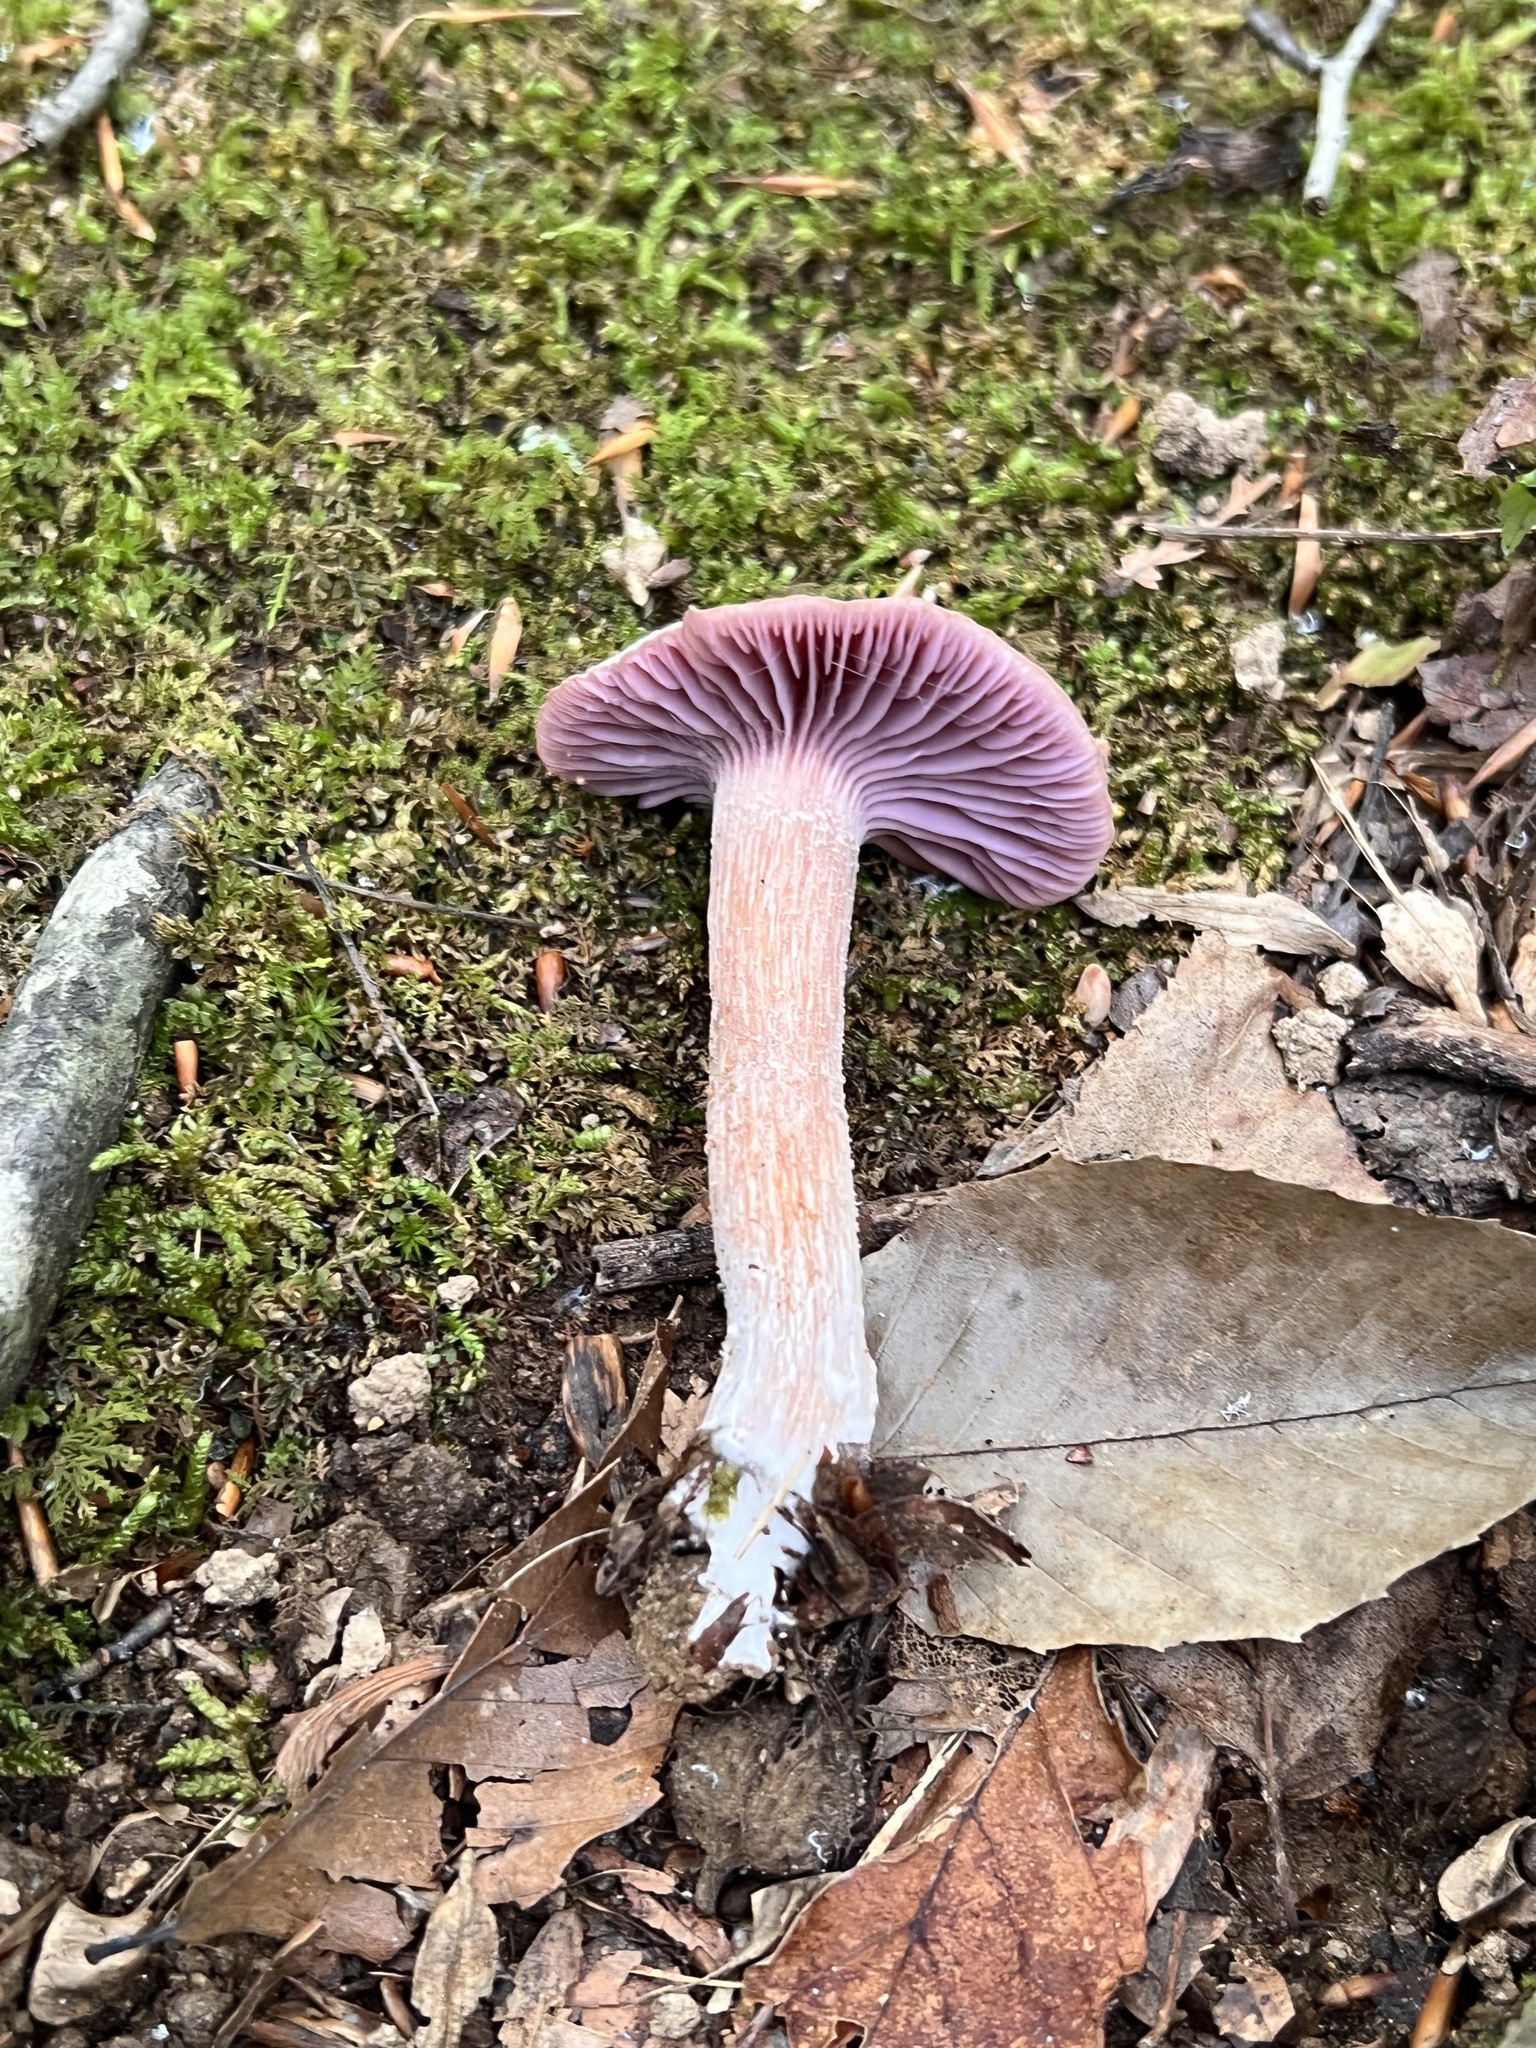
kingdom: Fungi
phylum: Basidiomycota
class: Agaricomycetes
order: Agaricales
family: Hydnangiaceae
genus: Laccaria
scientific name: Laccaria ochropurpurea
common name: Purple laccaria
